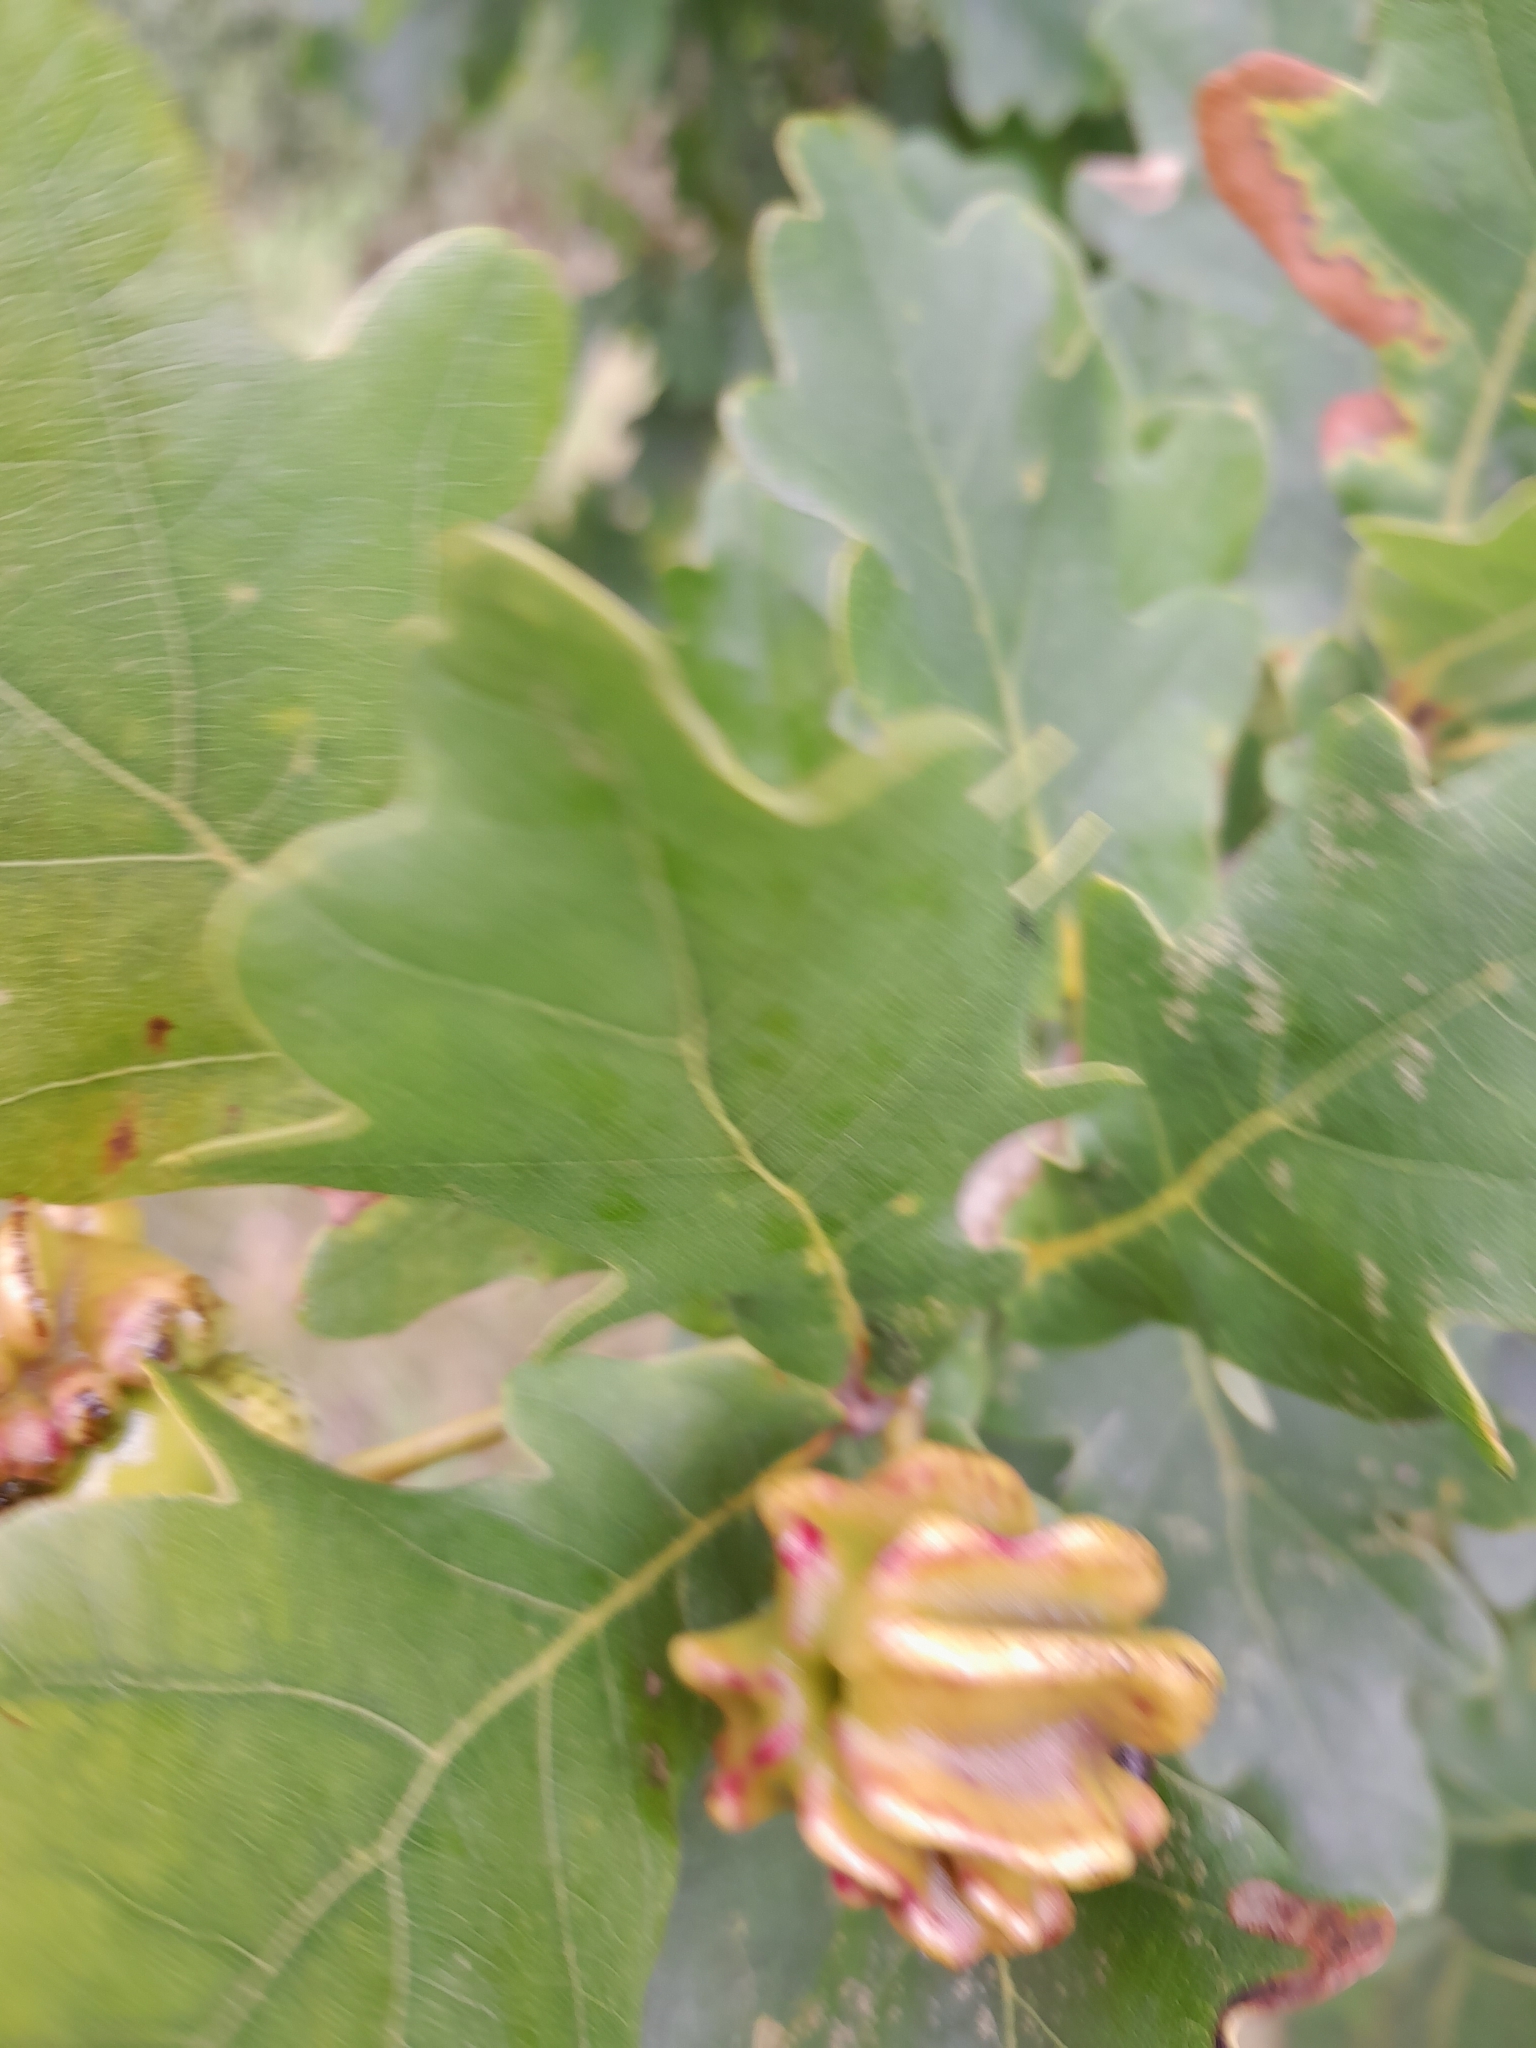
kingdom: Plantae
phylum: Tracheophyta
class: Magnoliopsida
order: Fagales
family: Fagaceae
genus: Quercus
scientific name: Quercus robur
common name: Pedunculate oak
